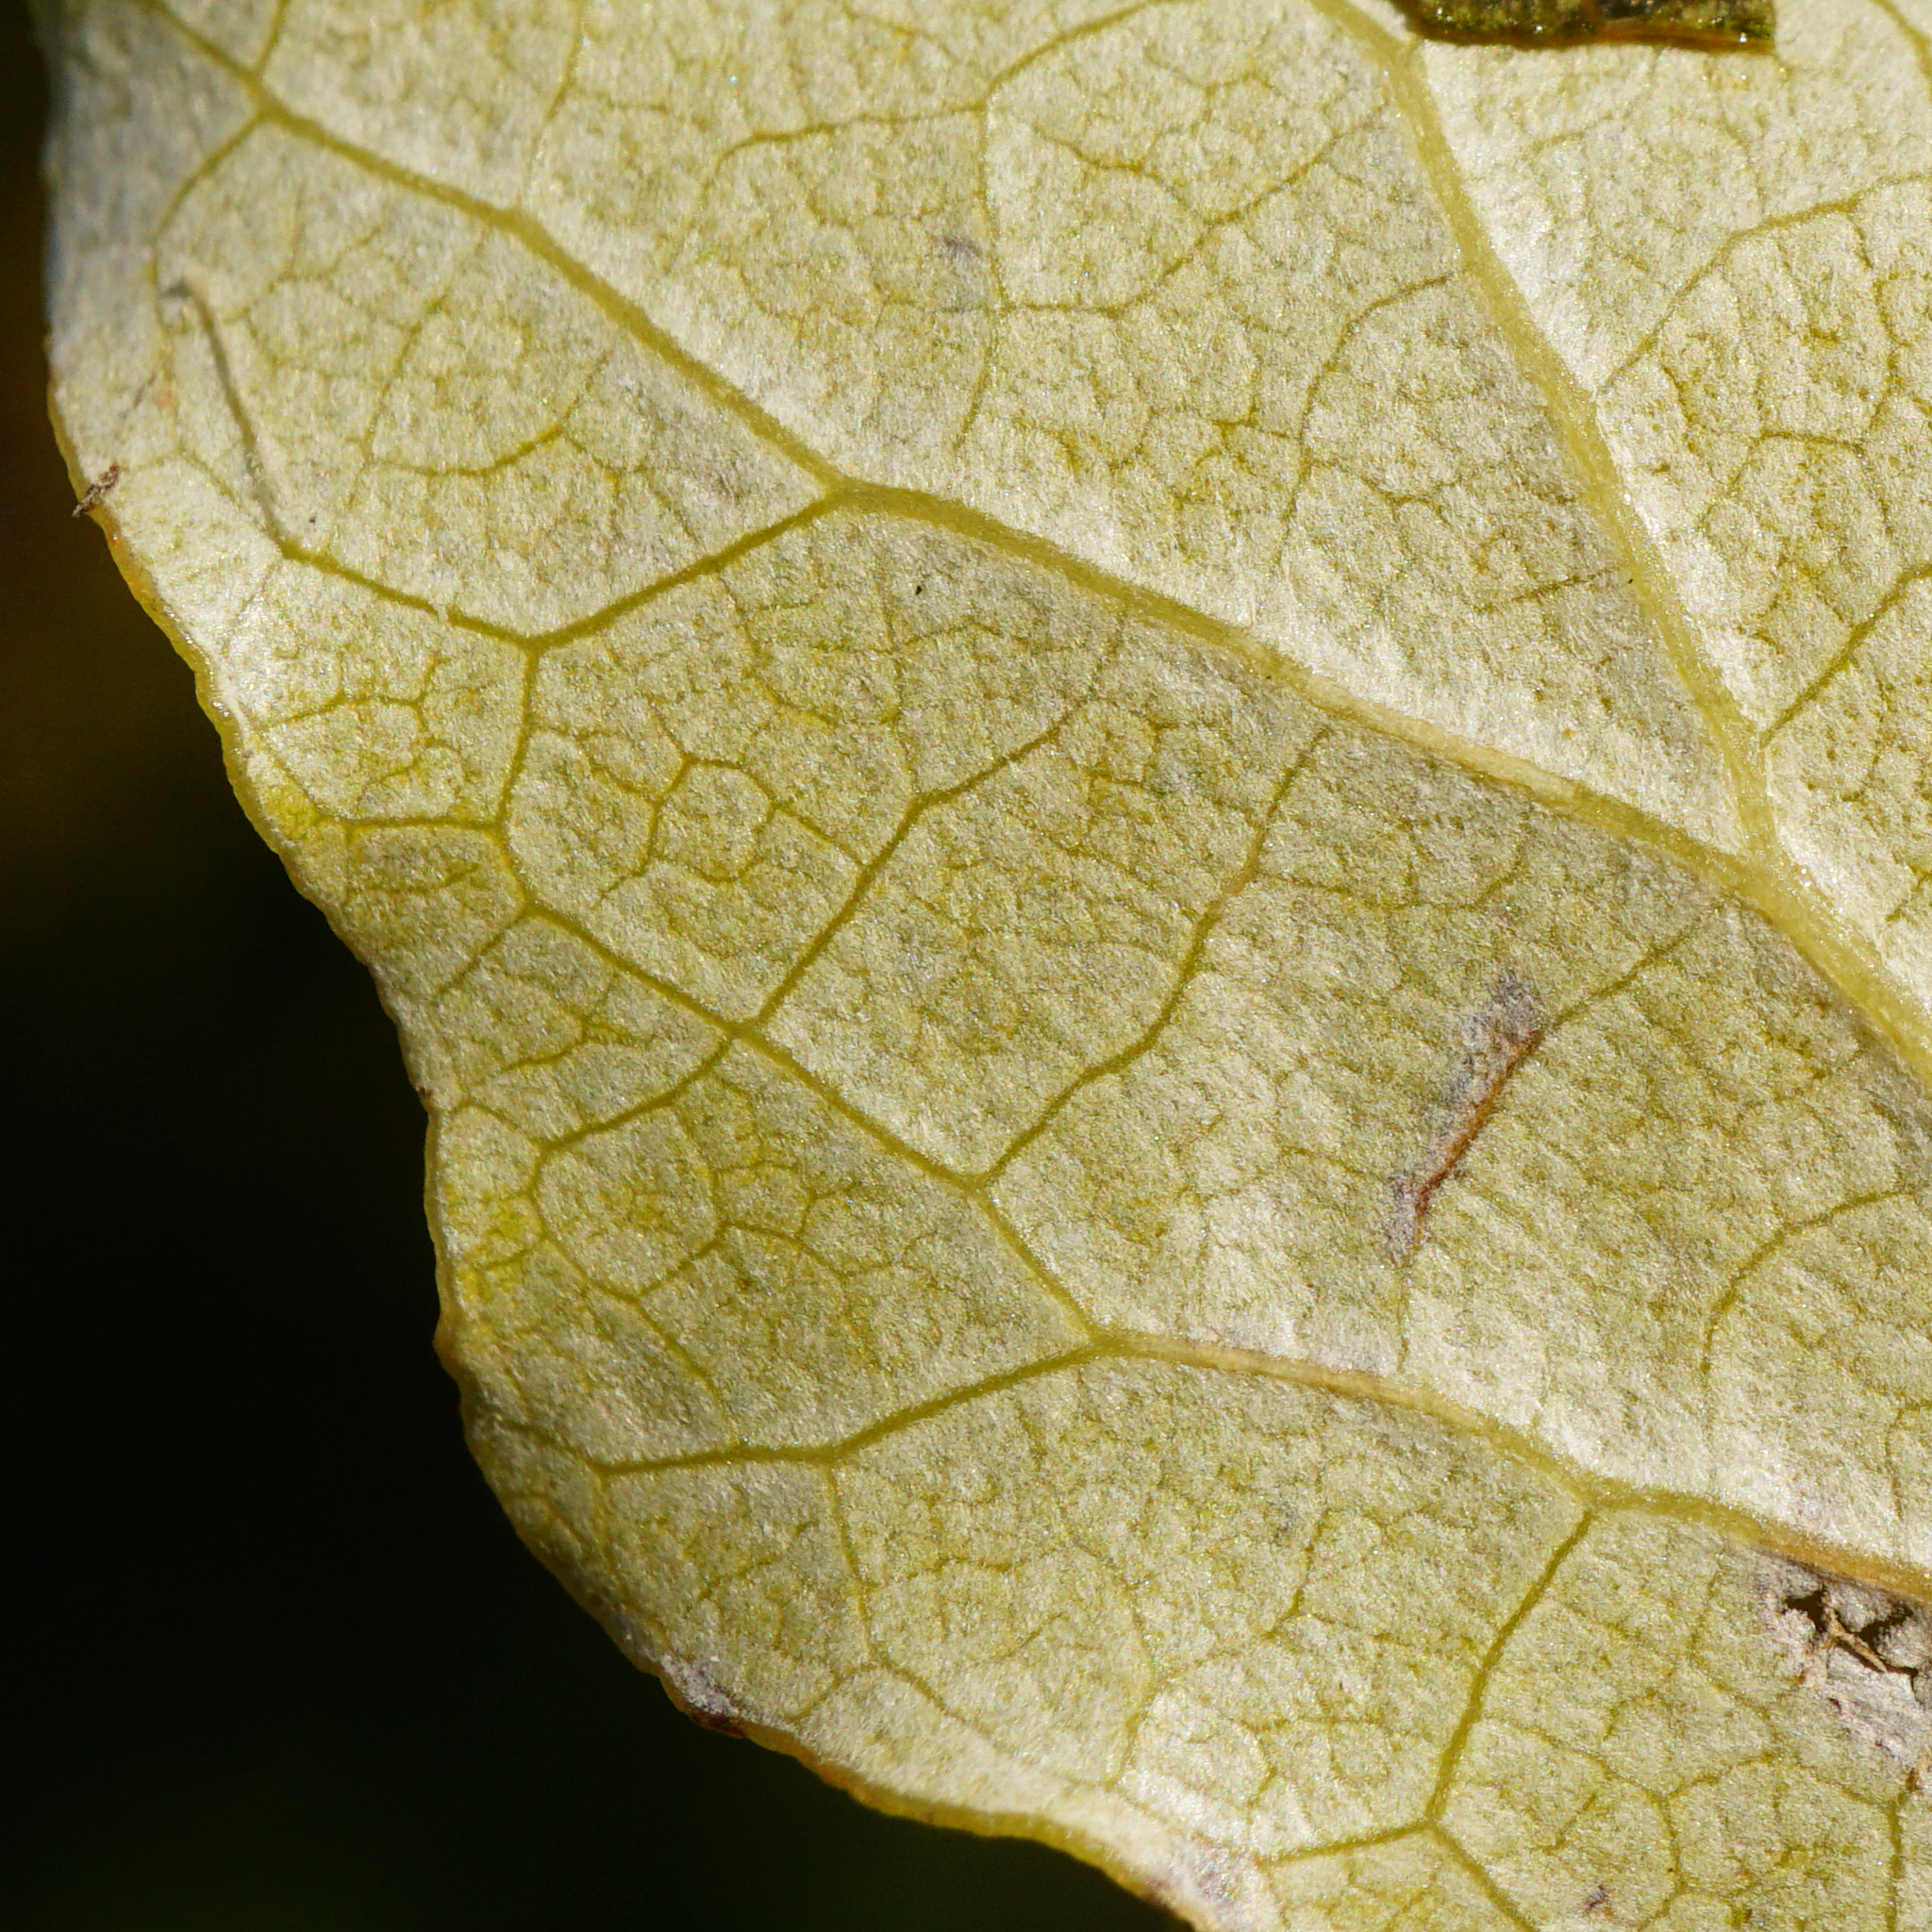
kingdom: Plantae
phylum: Tracheophyta
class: Magnoliopsida
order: Malpighiales
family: Salicaceae
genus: Populus
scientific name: Populus canescens
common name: Gray poplar
